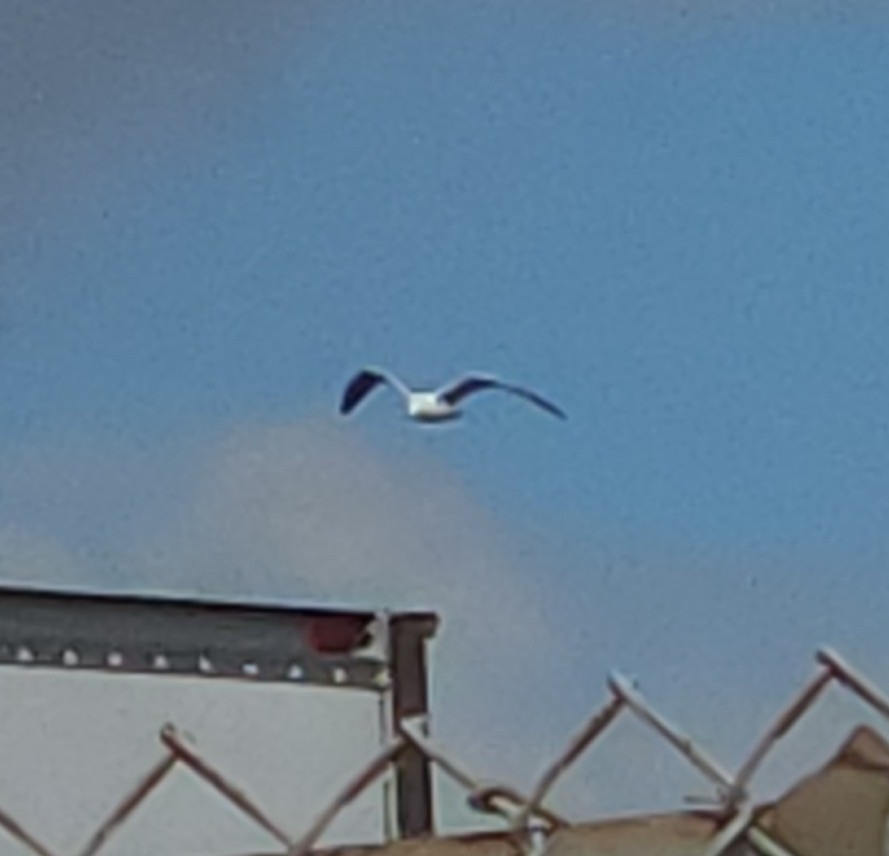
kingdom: Animalia
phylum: Chordata
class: Aves
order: Charadriiformes
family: Laridae
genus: Larus
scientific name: Larus
